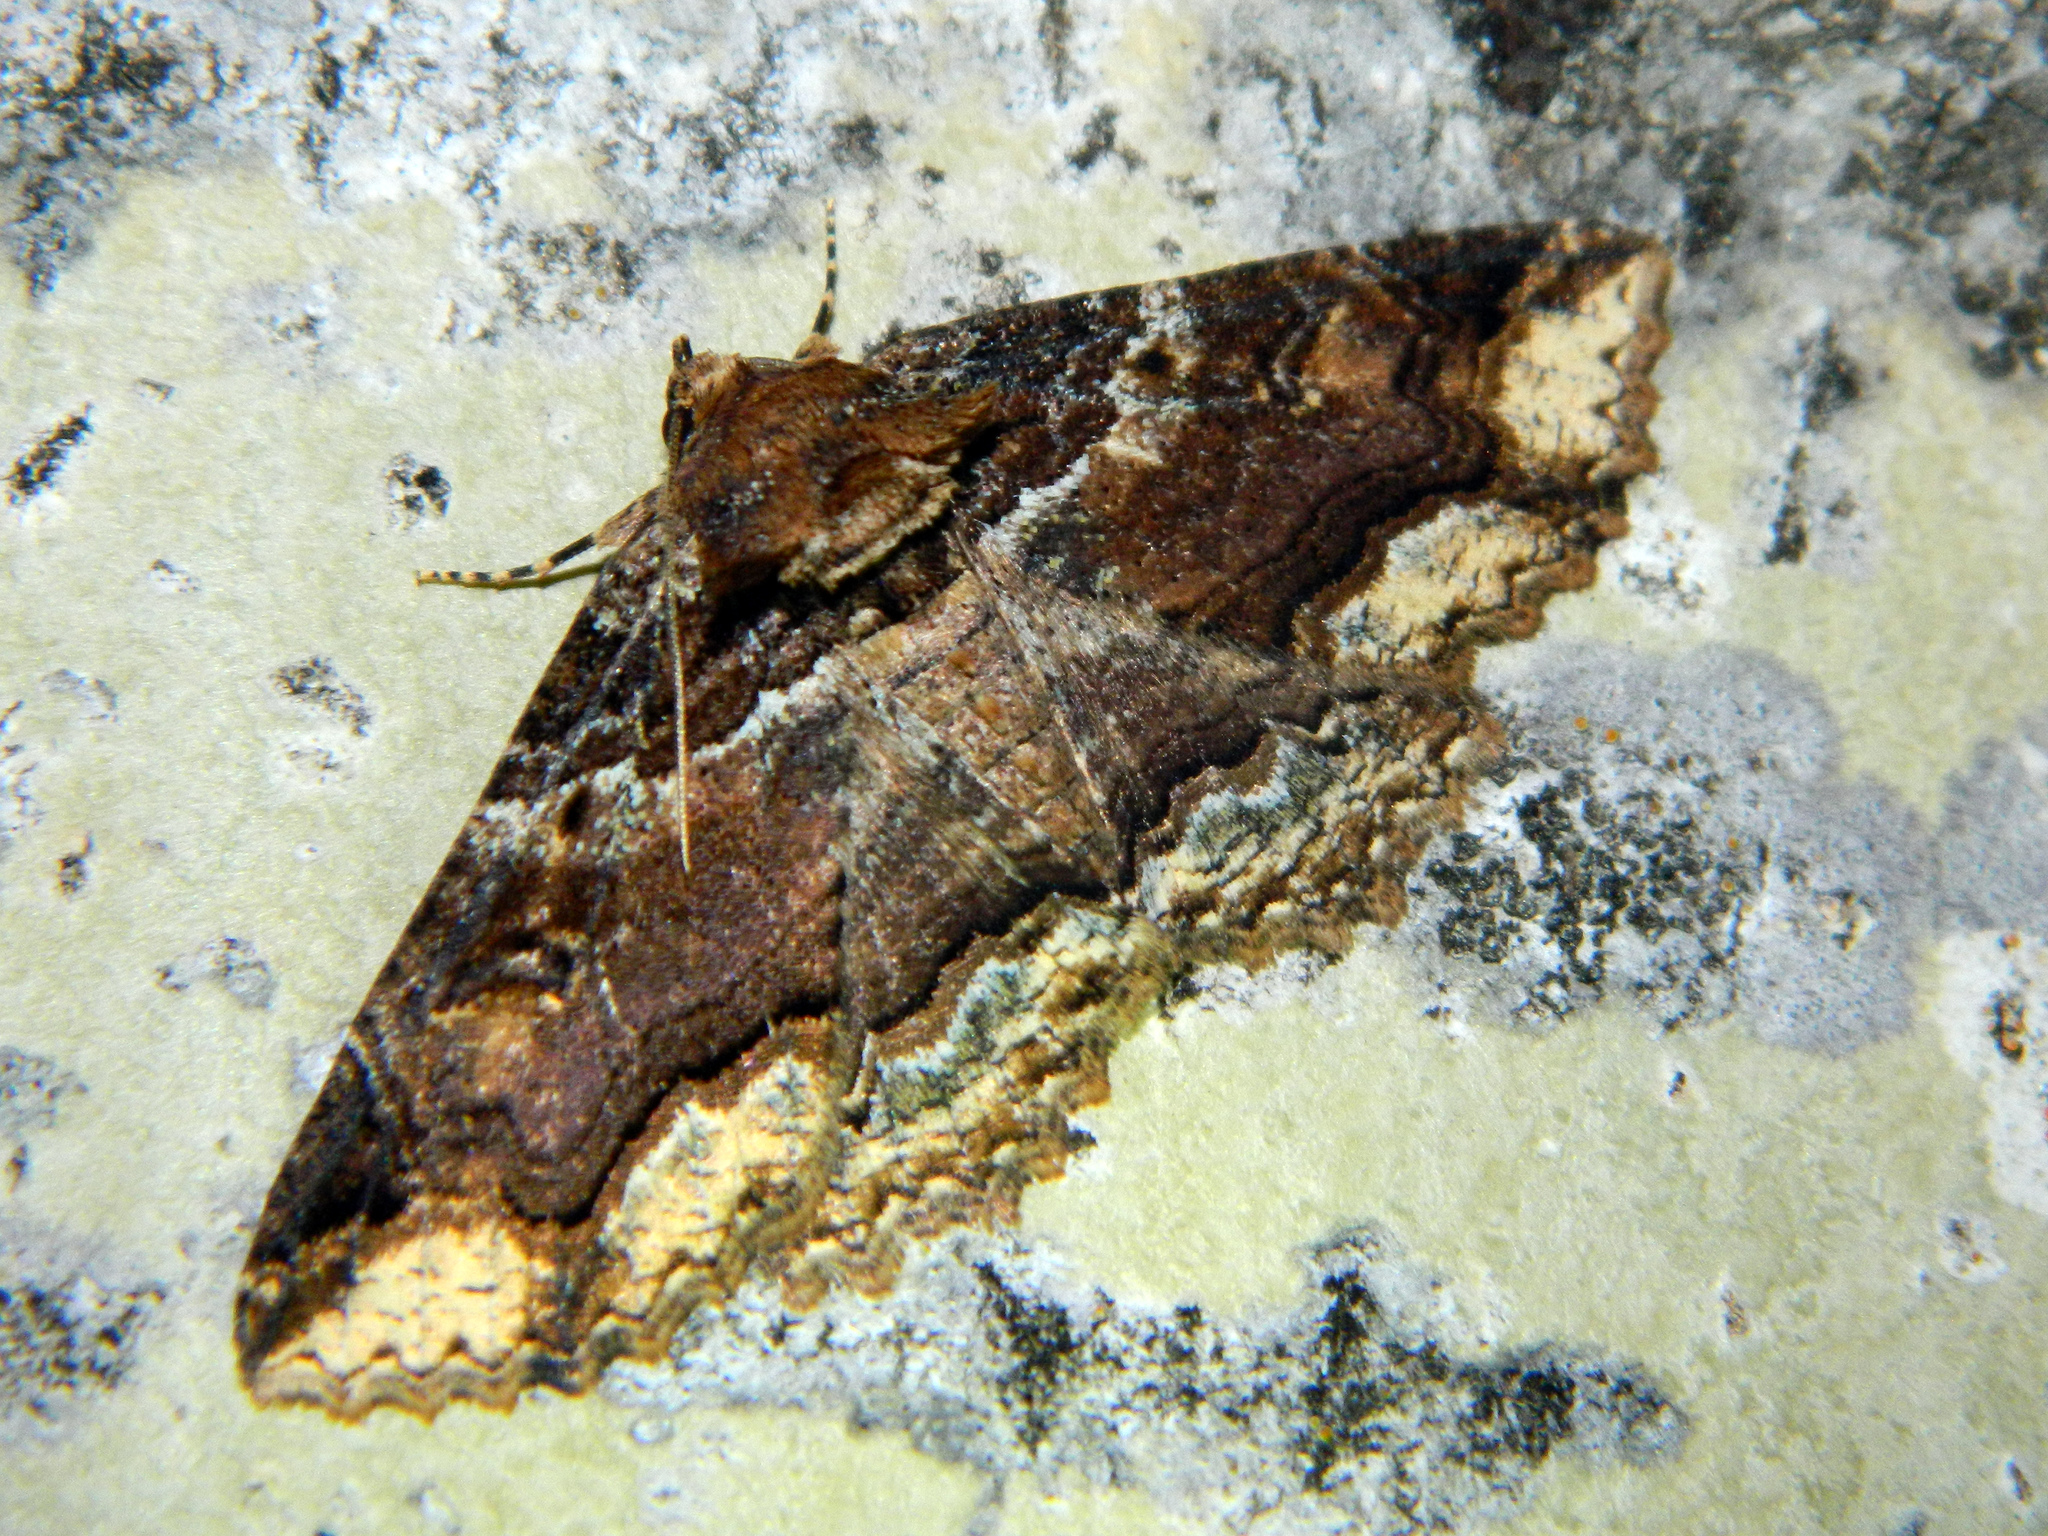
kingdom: Animalia
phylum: Arthropoda
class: Insecta
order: Lepidoptera
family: Erebidae
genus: Zale
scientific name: Zale minerea
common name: Colorful zale moth
